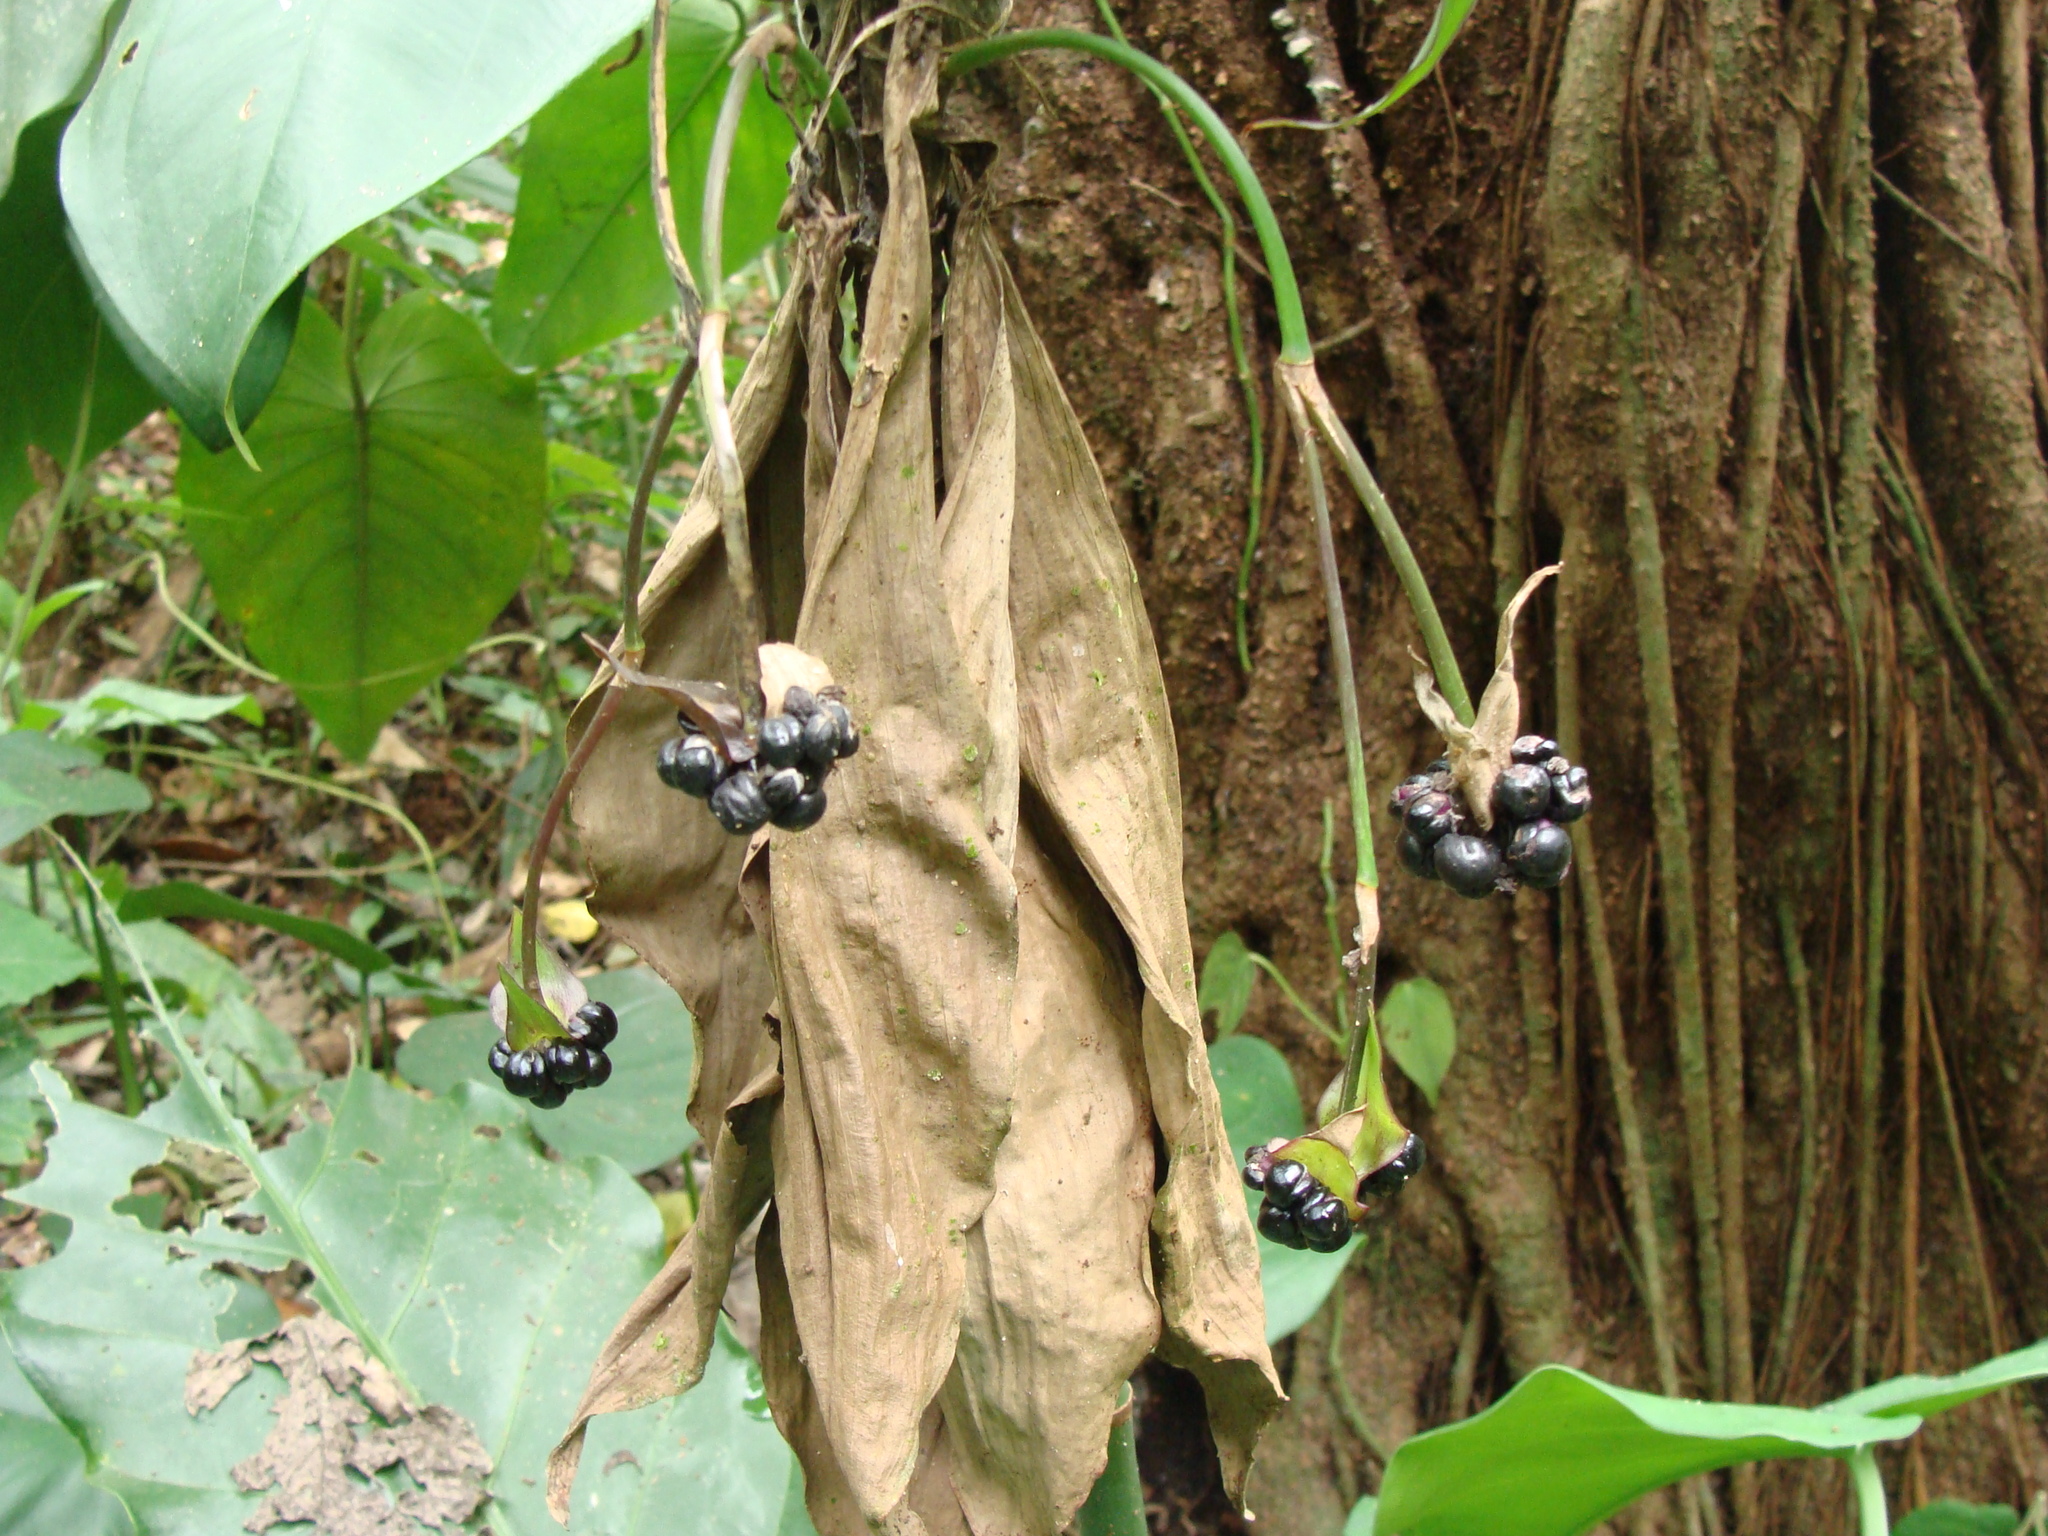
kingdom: Plantae
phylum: Tracheophyta
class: Liliopsida
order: Commelinales
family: Commelinaceae
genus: Tradescantia
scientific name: Tradescantia zanonia
